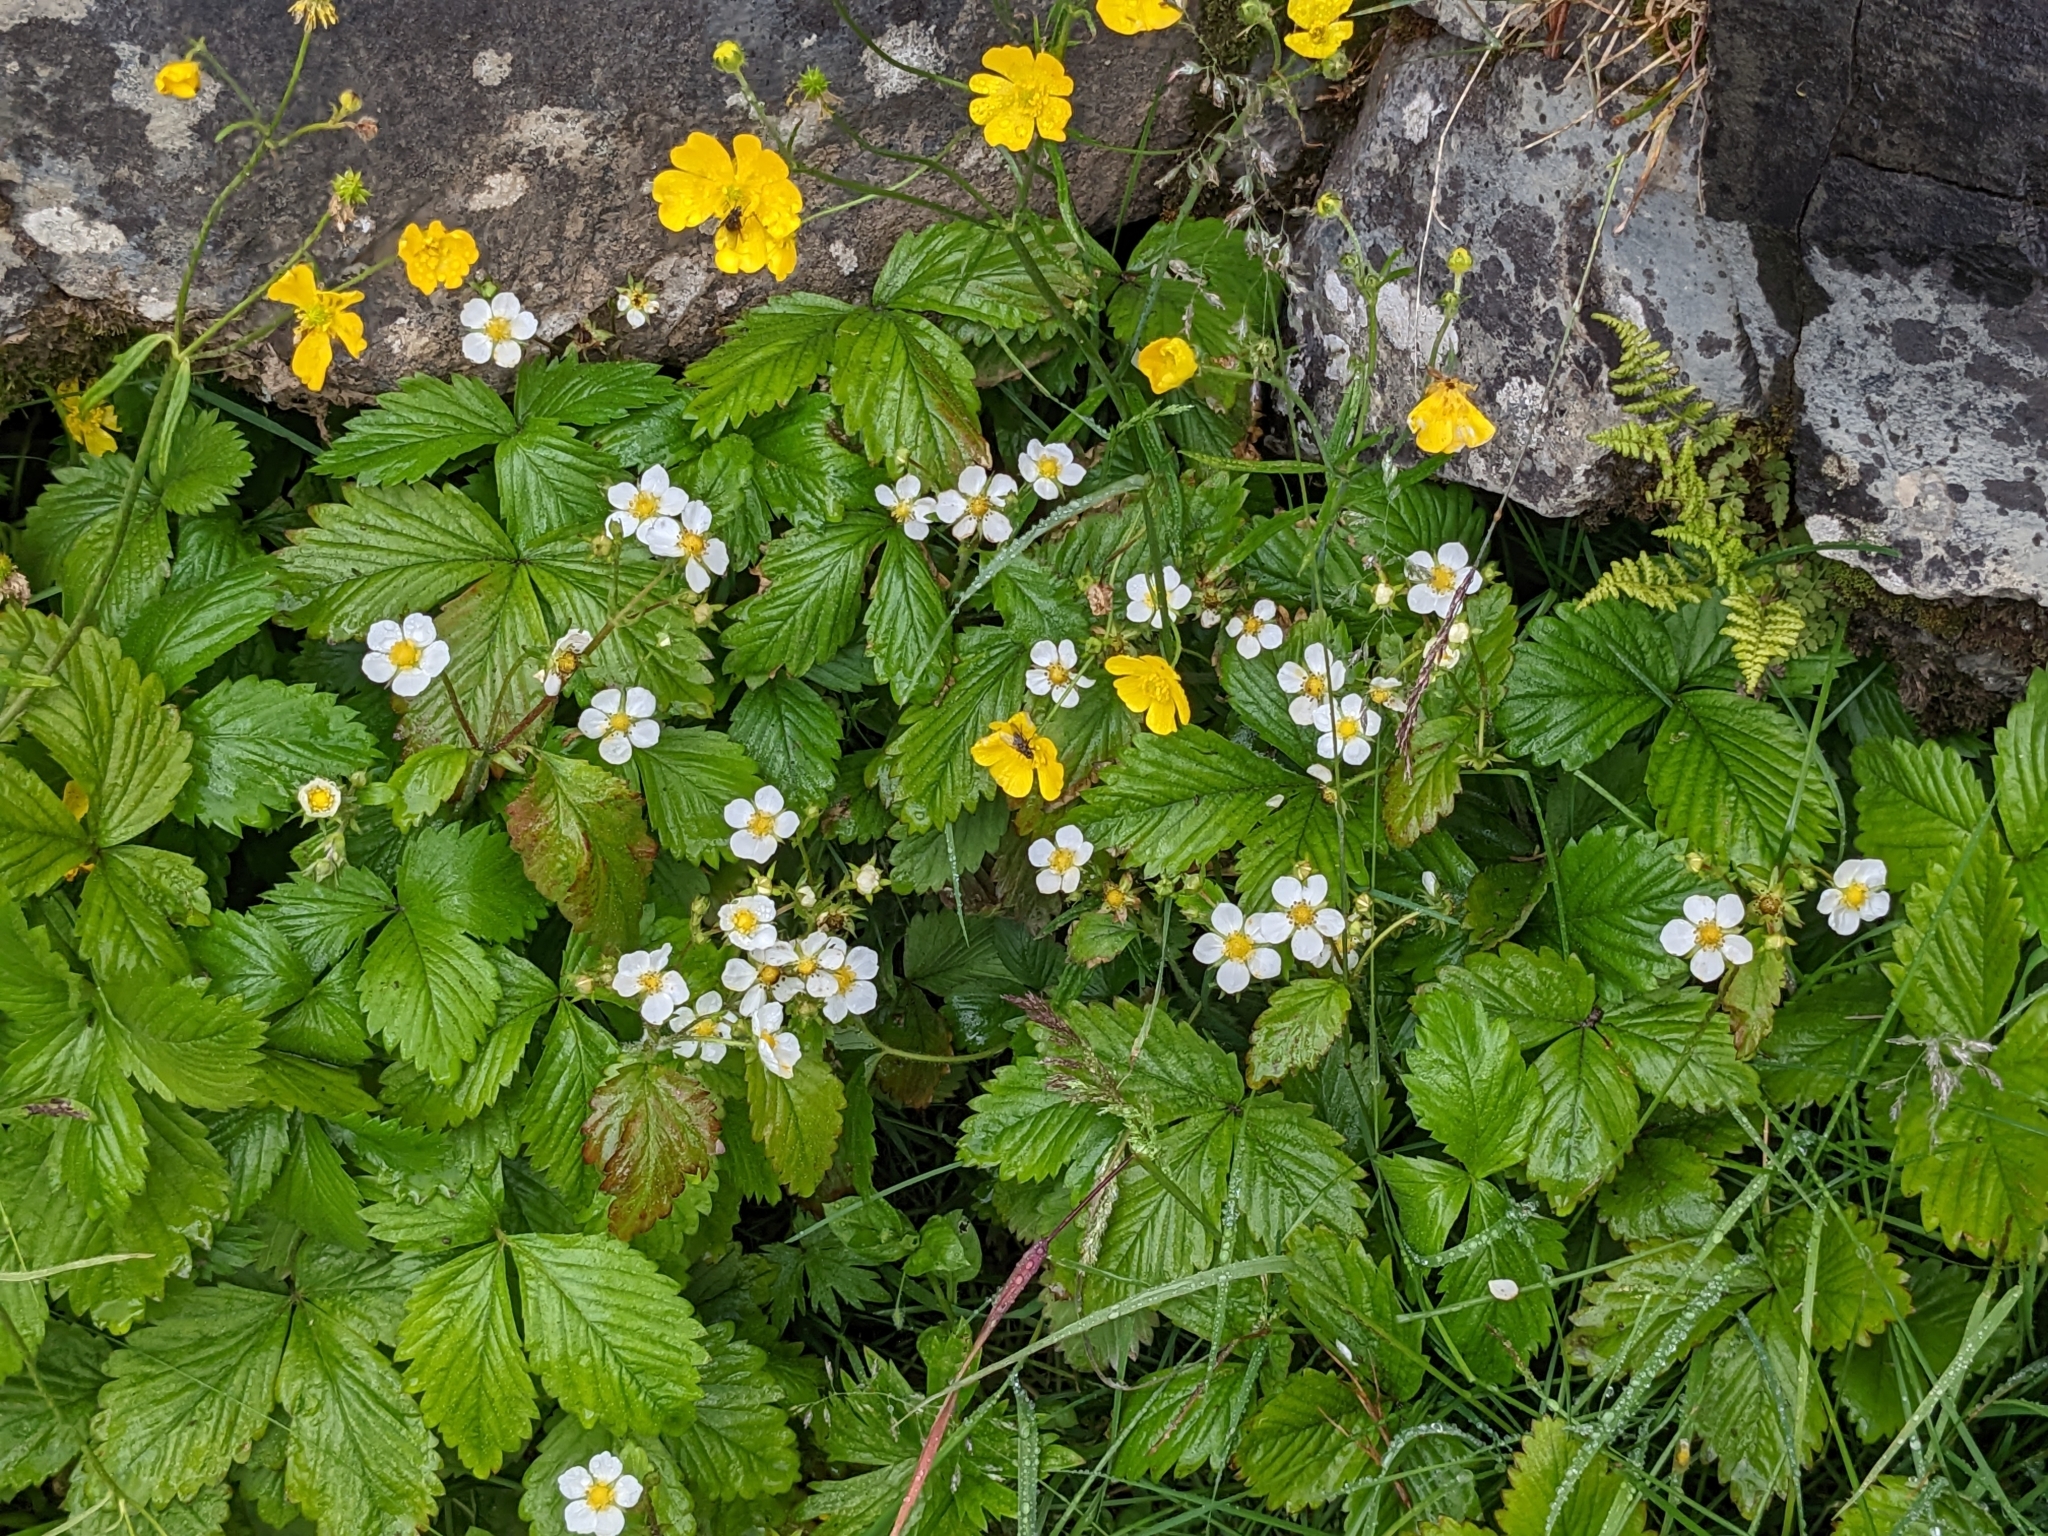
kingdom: Plantae
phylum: Tracheophyta
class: Magnoliopsida
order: Rosales
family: Rosaceae
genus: Fragaria
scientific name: Fragaria vesca
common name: Wild strawberry
